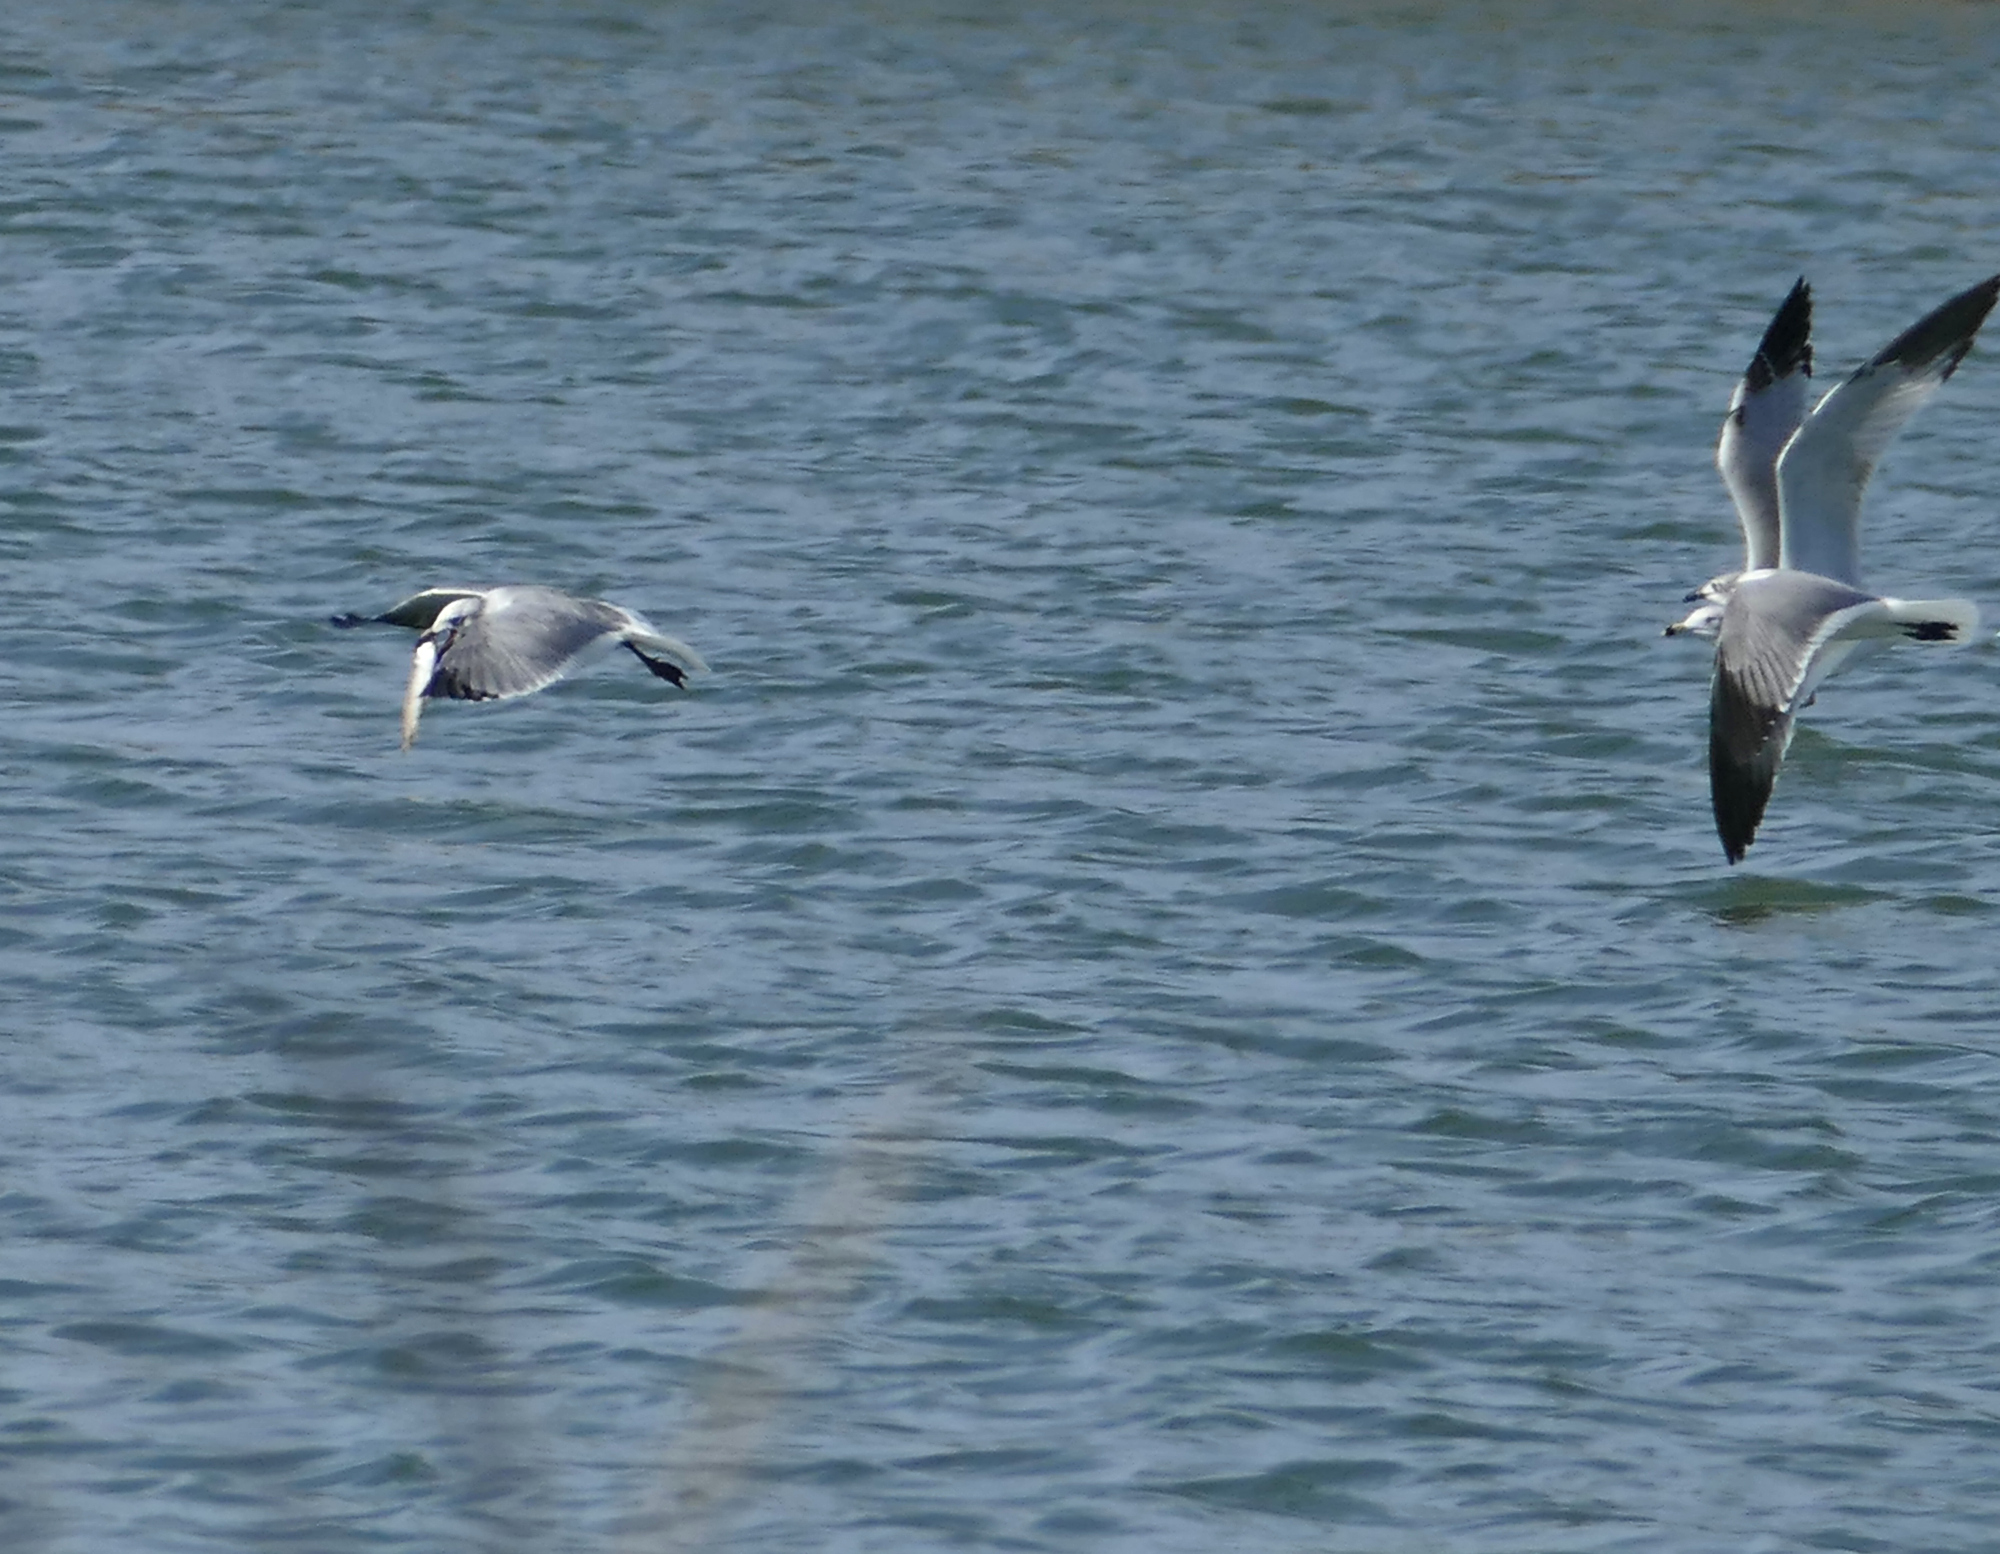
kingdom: Animalia
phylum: Chordata
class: Aves
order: Charadriiformes
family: Laridae
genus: Leucophaeus
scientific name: Leucophaeus atricilla
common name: Laughing gull
